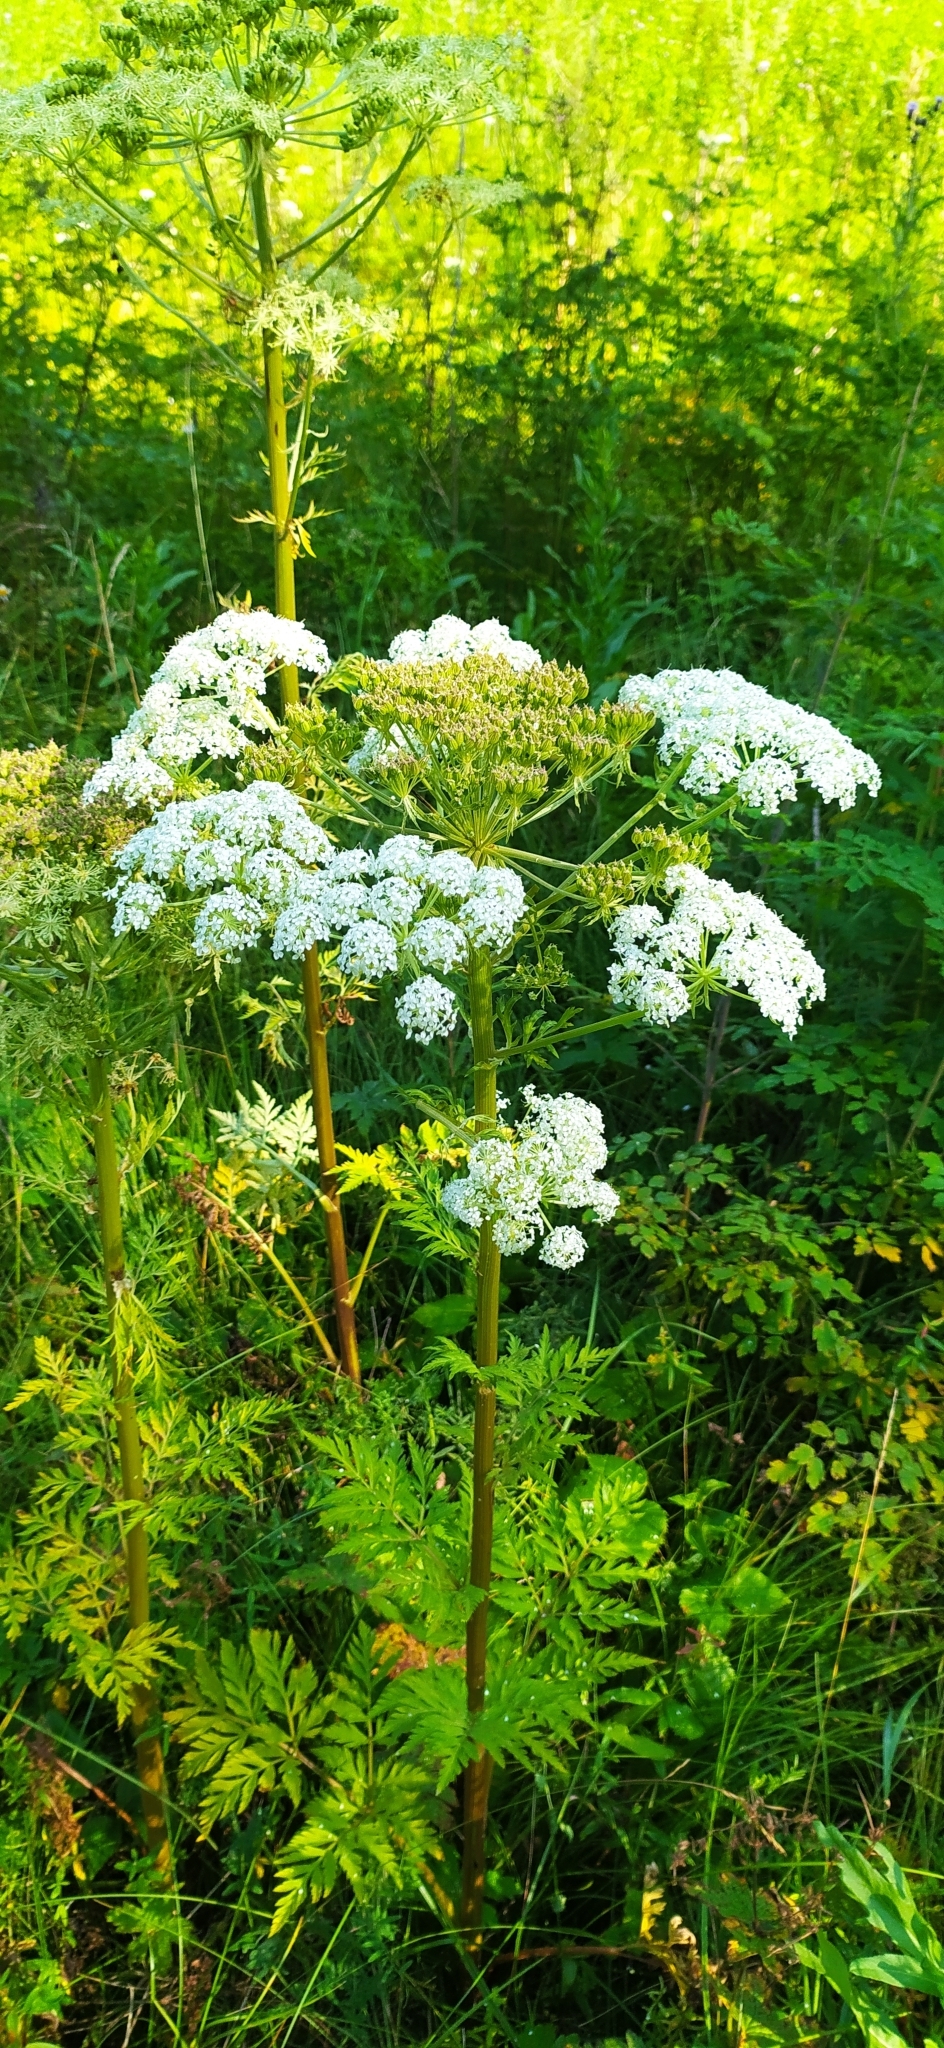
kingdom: Plantae
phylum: Tracheophyta
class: Magnoliopsida
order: Apiales
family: Apiaceae
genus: Pleurospermum
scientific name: Pleurospermum uralense
